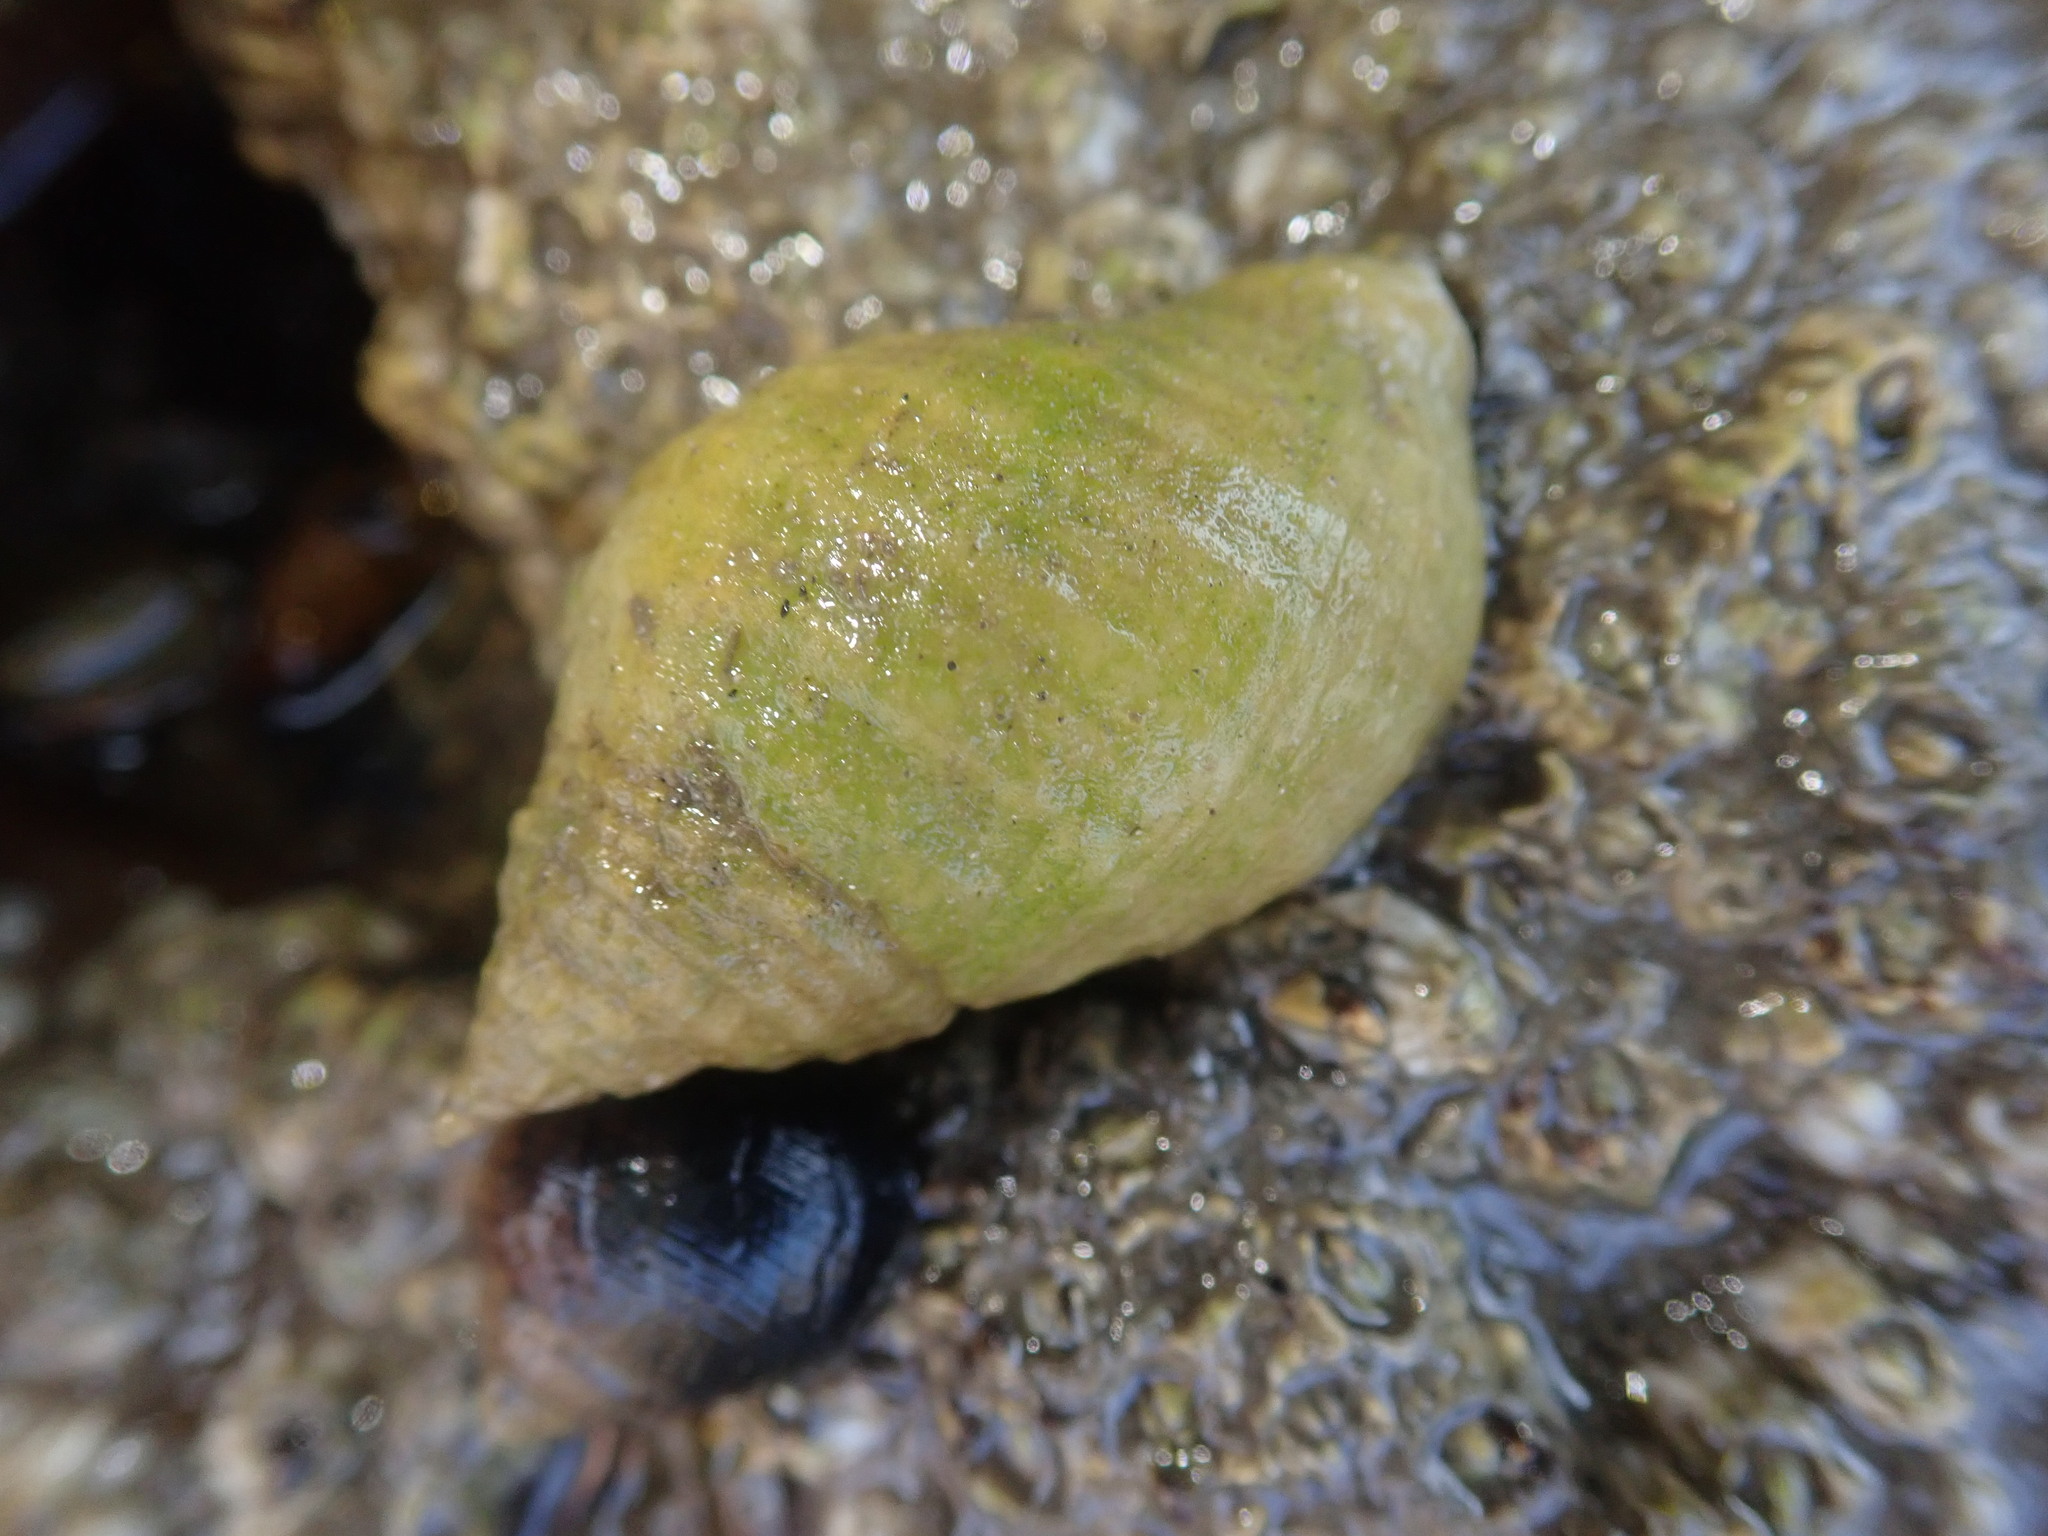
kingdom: Animalia
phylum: Mollusca
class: Gastropoda
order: Neogastropoda
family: Muricidae
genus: Nucella
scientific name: Nucella lapillus
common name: Dog whelk
